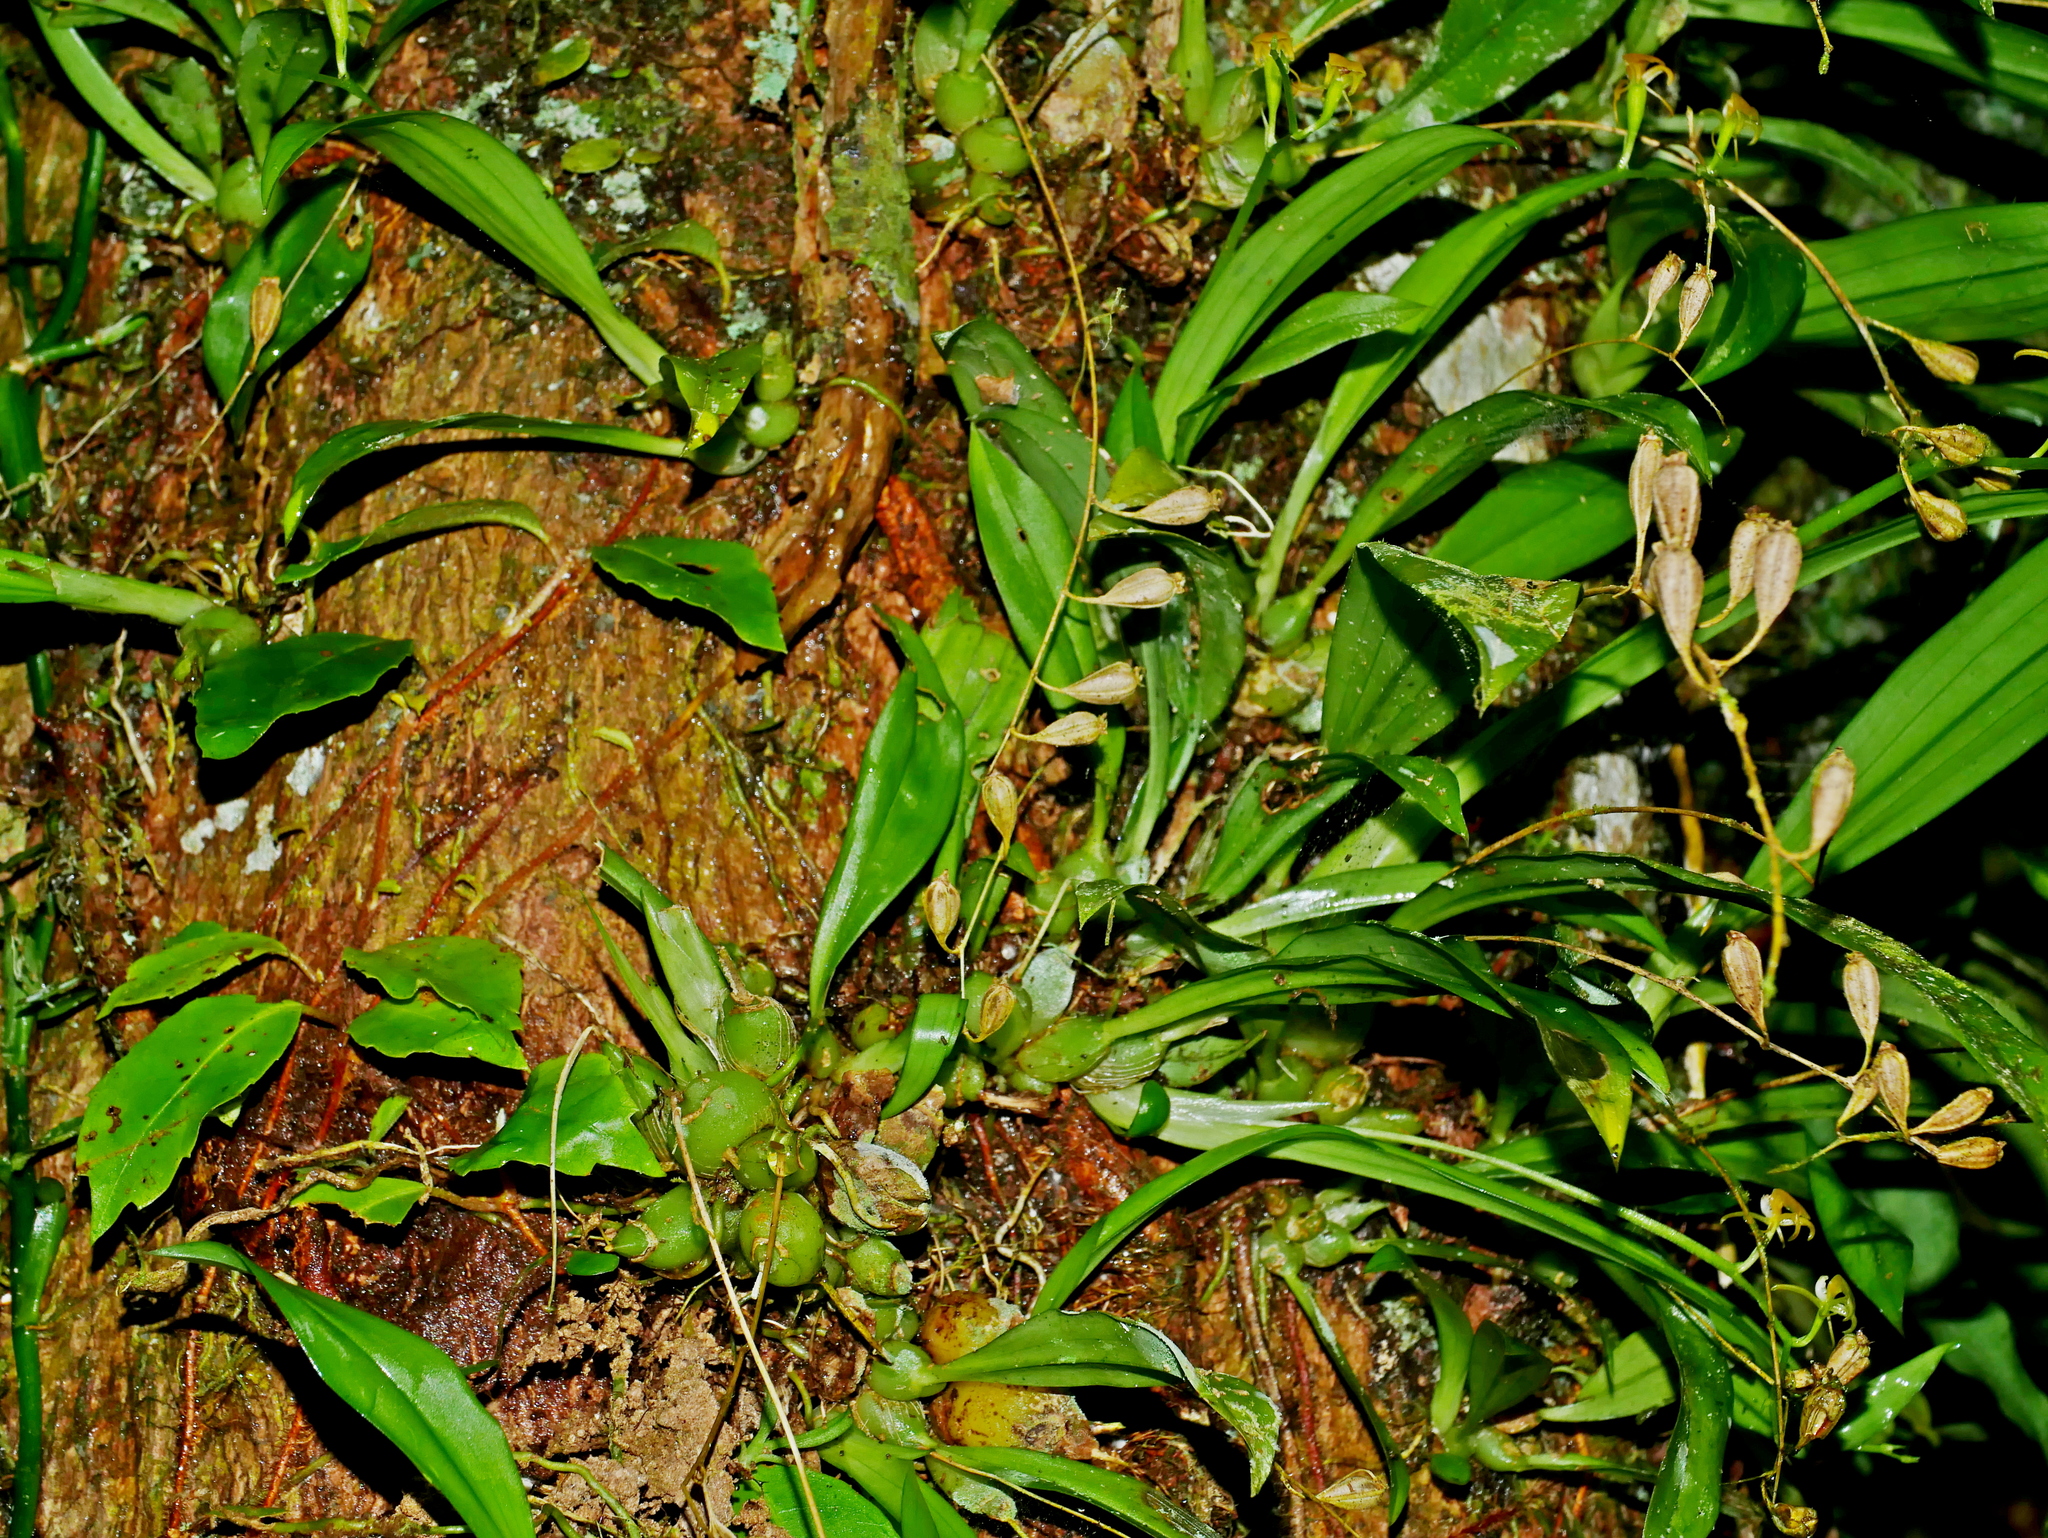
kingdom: Plantae
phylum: Tracheophyta
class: Liliopsida
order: Asparagales
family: Orchidaceae
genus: Liparis
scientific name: Liparis bootanensis
